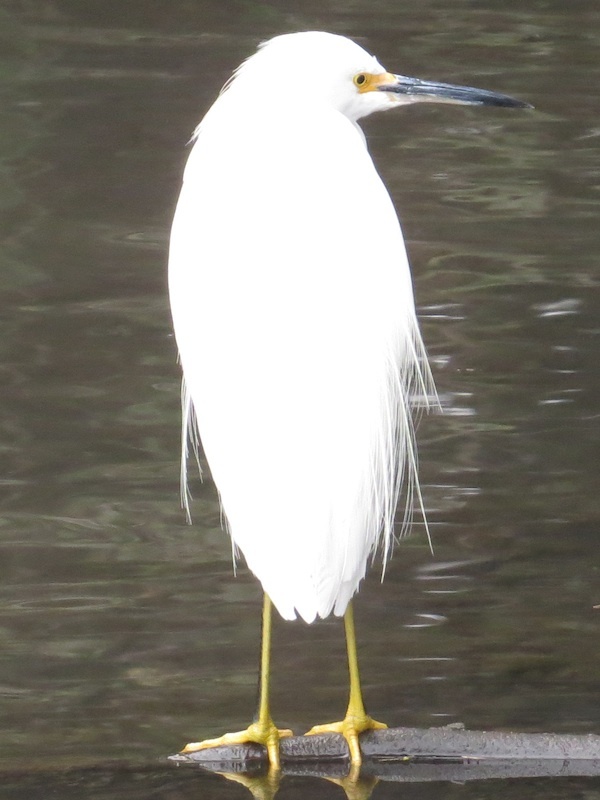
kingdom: Animalia
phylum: Chordata
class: Aves
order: Pelecaniformes
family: Ardeidae
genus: Egretta
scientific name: Egretta thula
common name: Snowy egret
